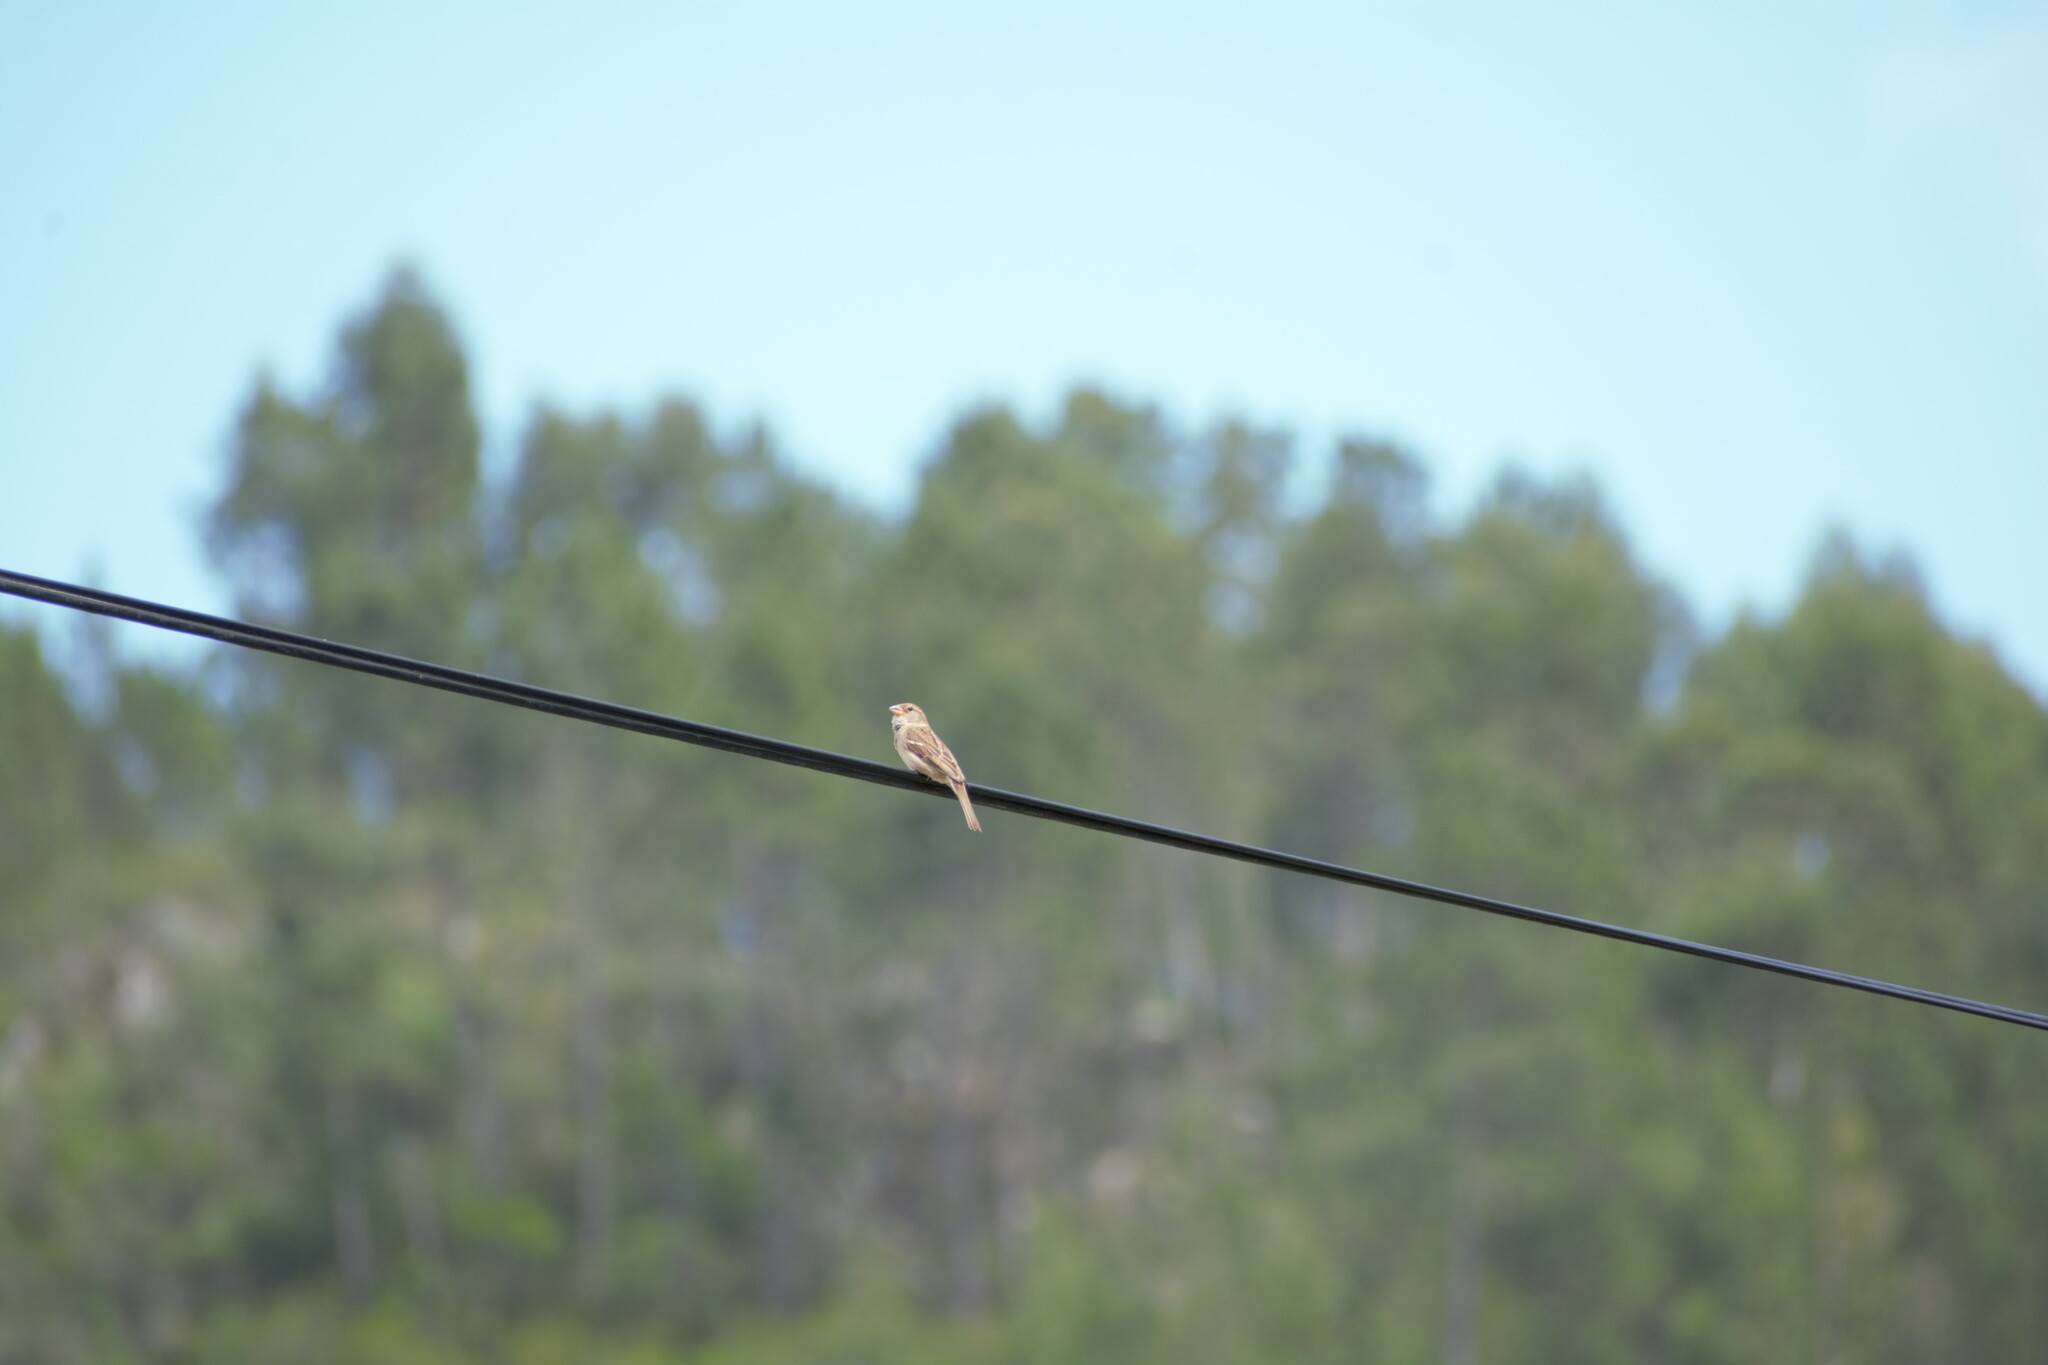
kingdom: Animalia
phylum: Chordata
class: Aves
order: Passeriformes
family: Passeridae
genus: Passer
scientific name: Passer domesticus
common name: House sparrow
